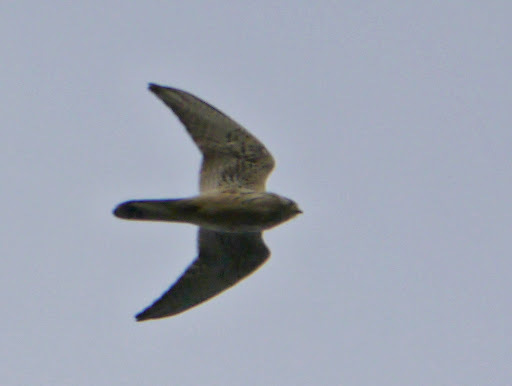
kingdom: Animalia
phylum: Chordata
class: Aves
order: Falconiformes
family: Falconidae
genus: Falco
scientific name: Falco tinnunculus
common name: Common kestrel
